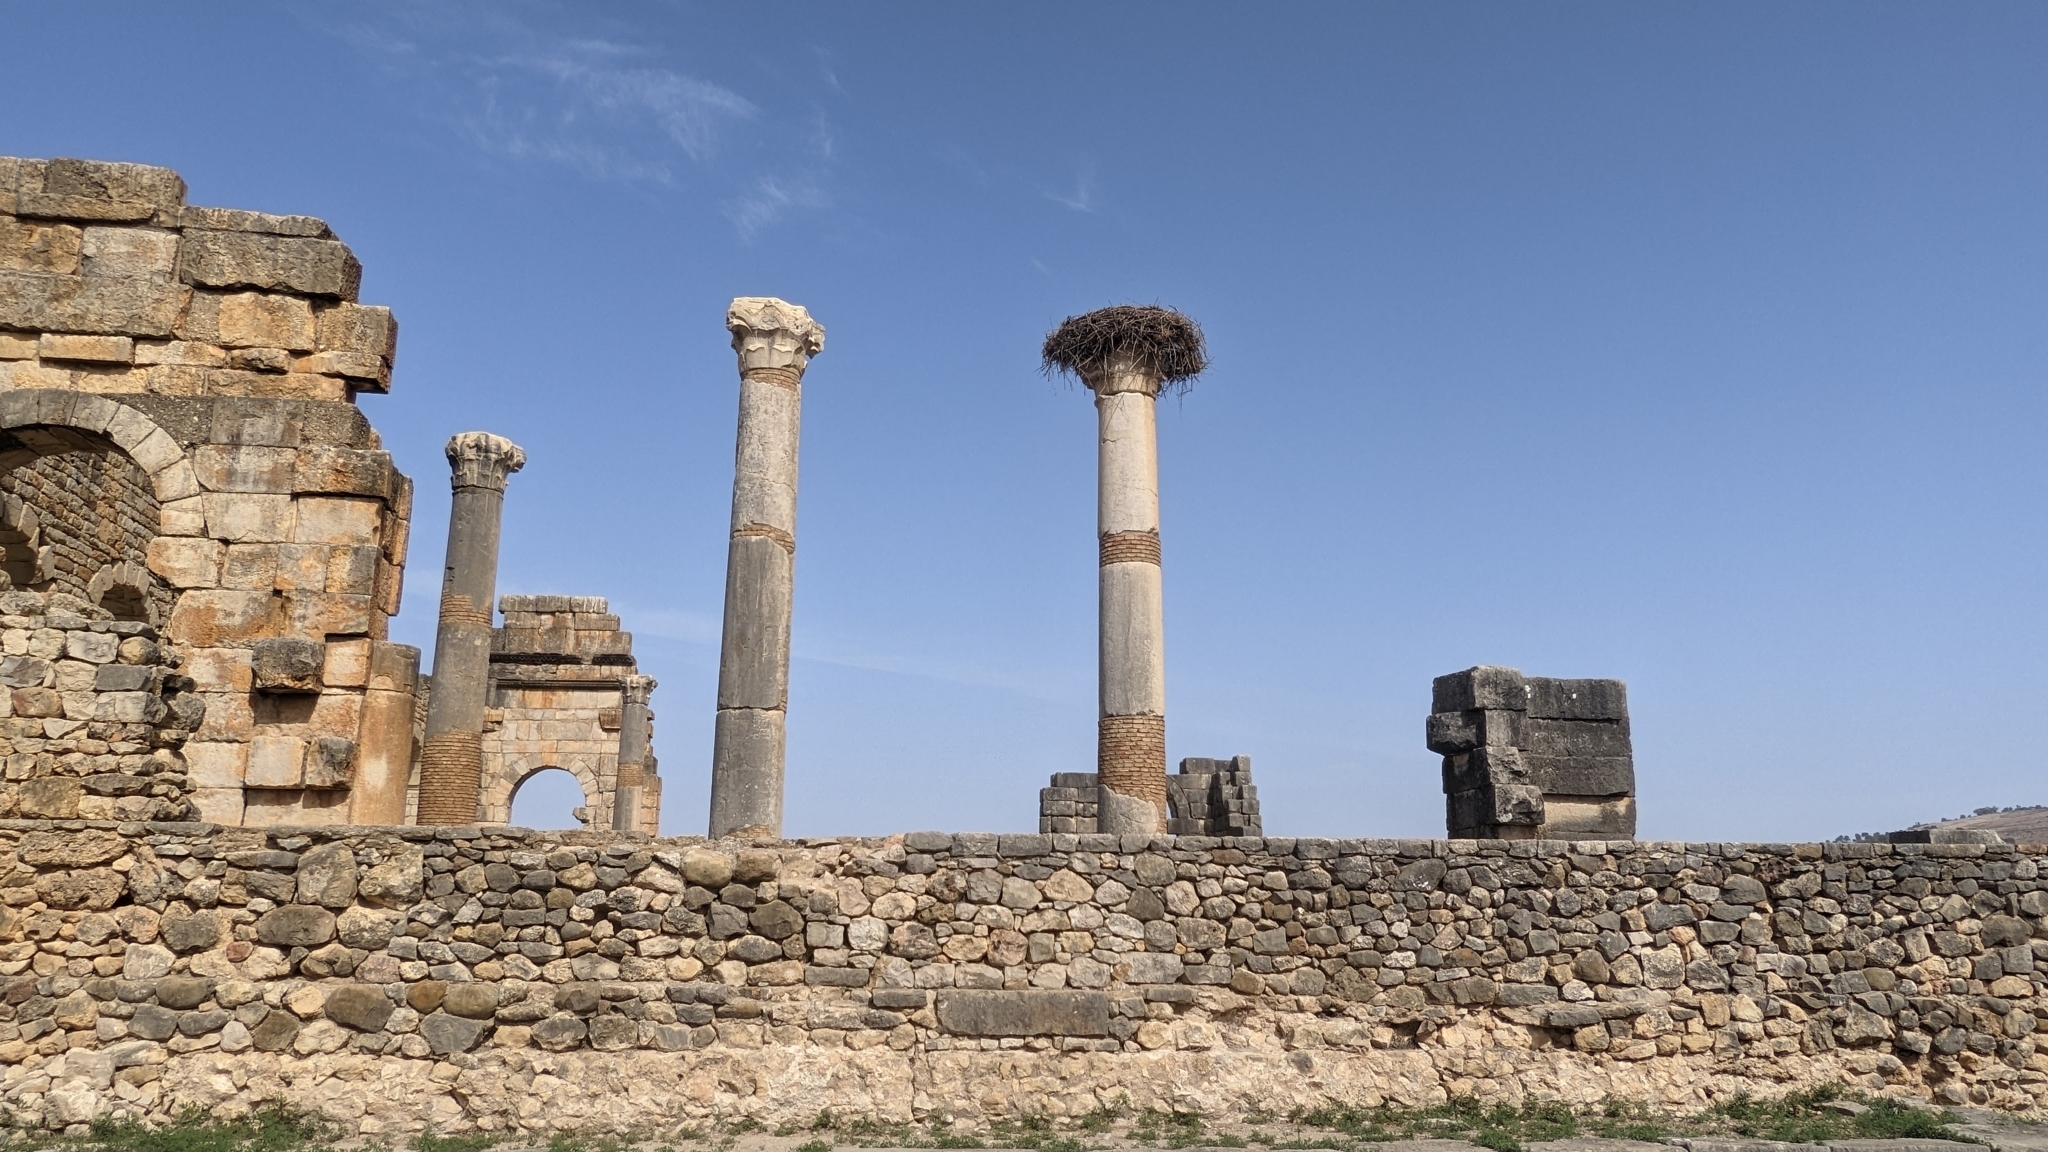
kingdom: Animalia
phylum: Chordata
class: Aves
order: Ciconiiformes
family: Ciconiidae
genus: Ciconia
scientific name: Ciconia ciconia
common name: White stork
